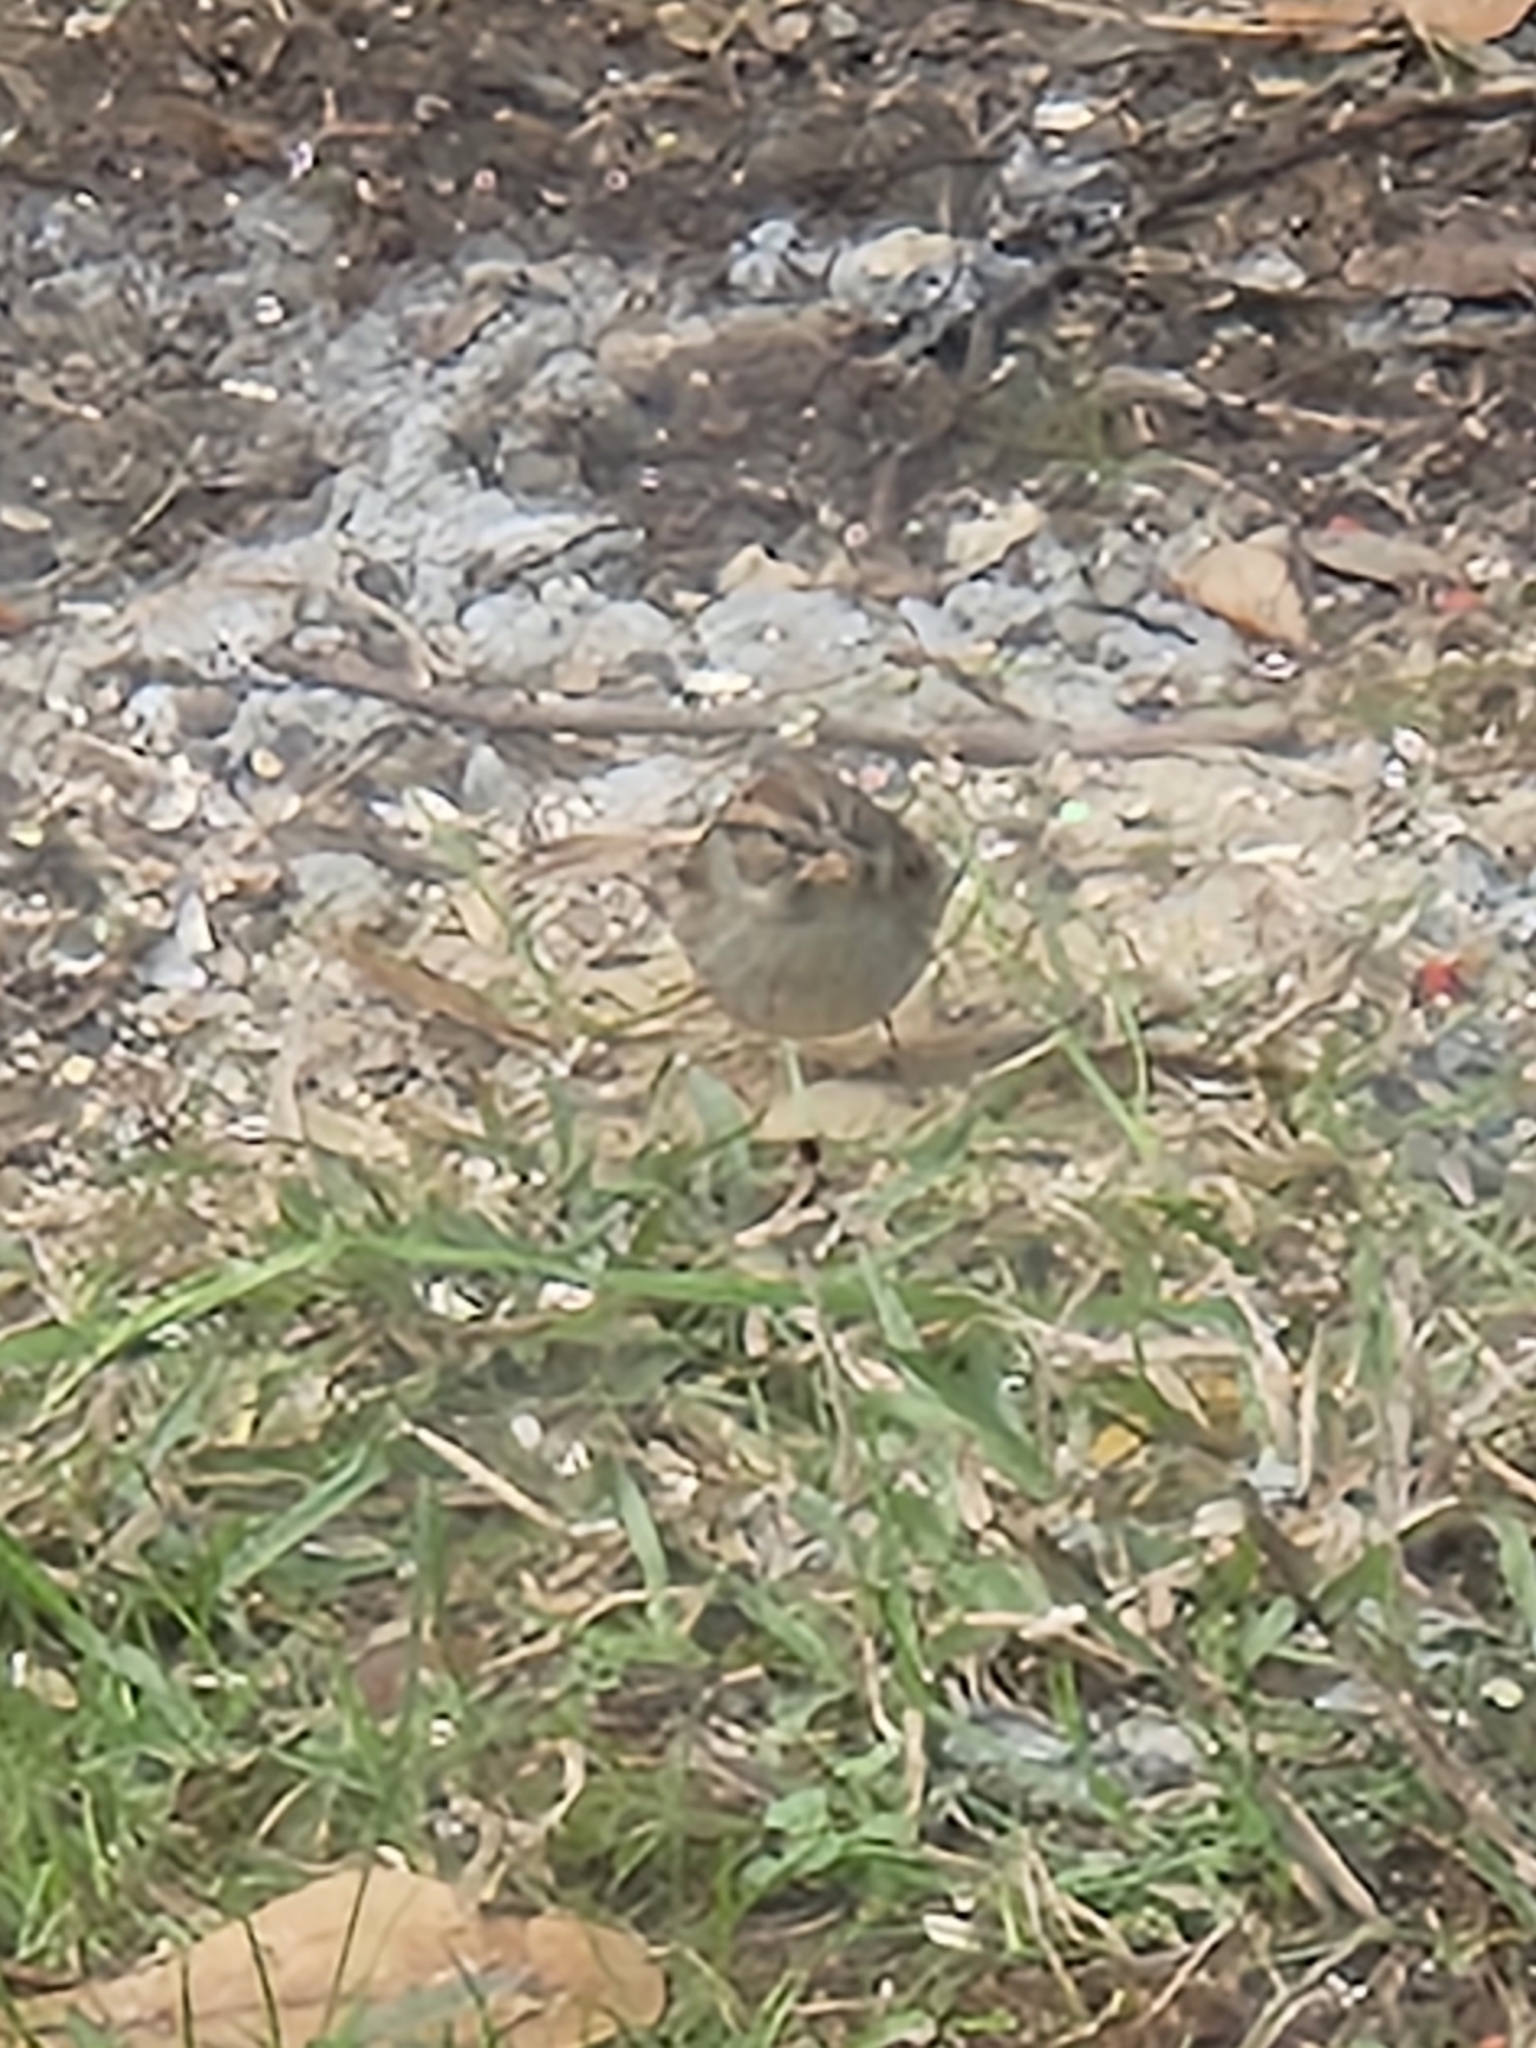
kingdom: Animalia
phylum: Chordata
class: Aves
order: Passeriformes
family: Passeridae
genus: Passer
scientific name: Passer domesticus
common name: House sparrow
